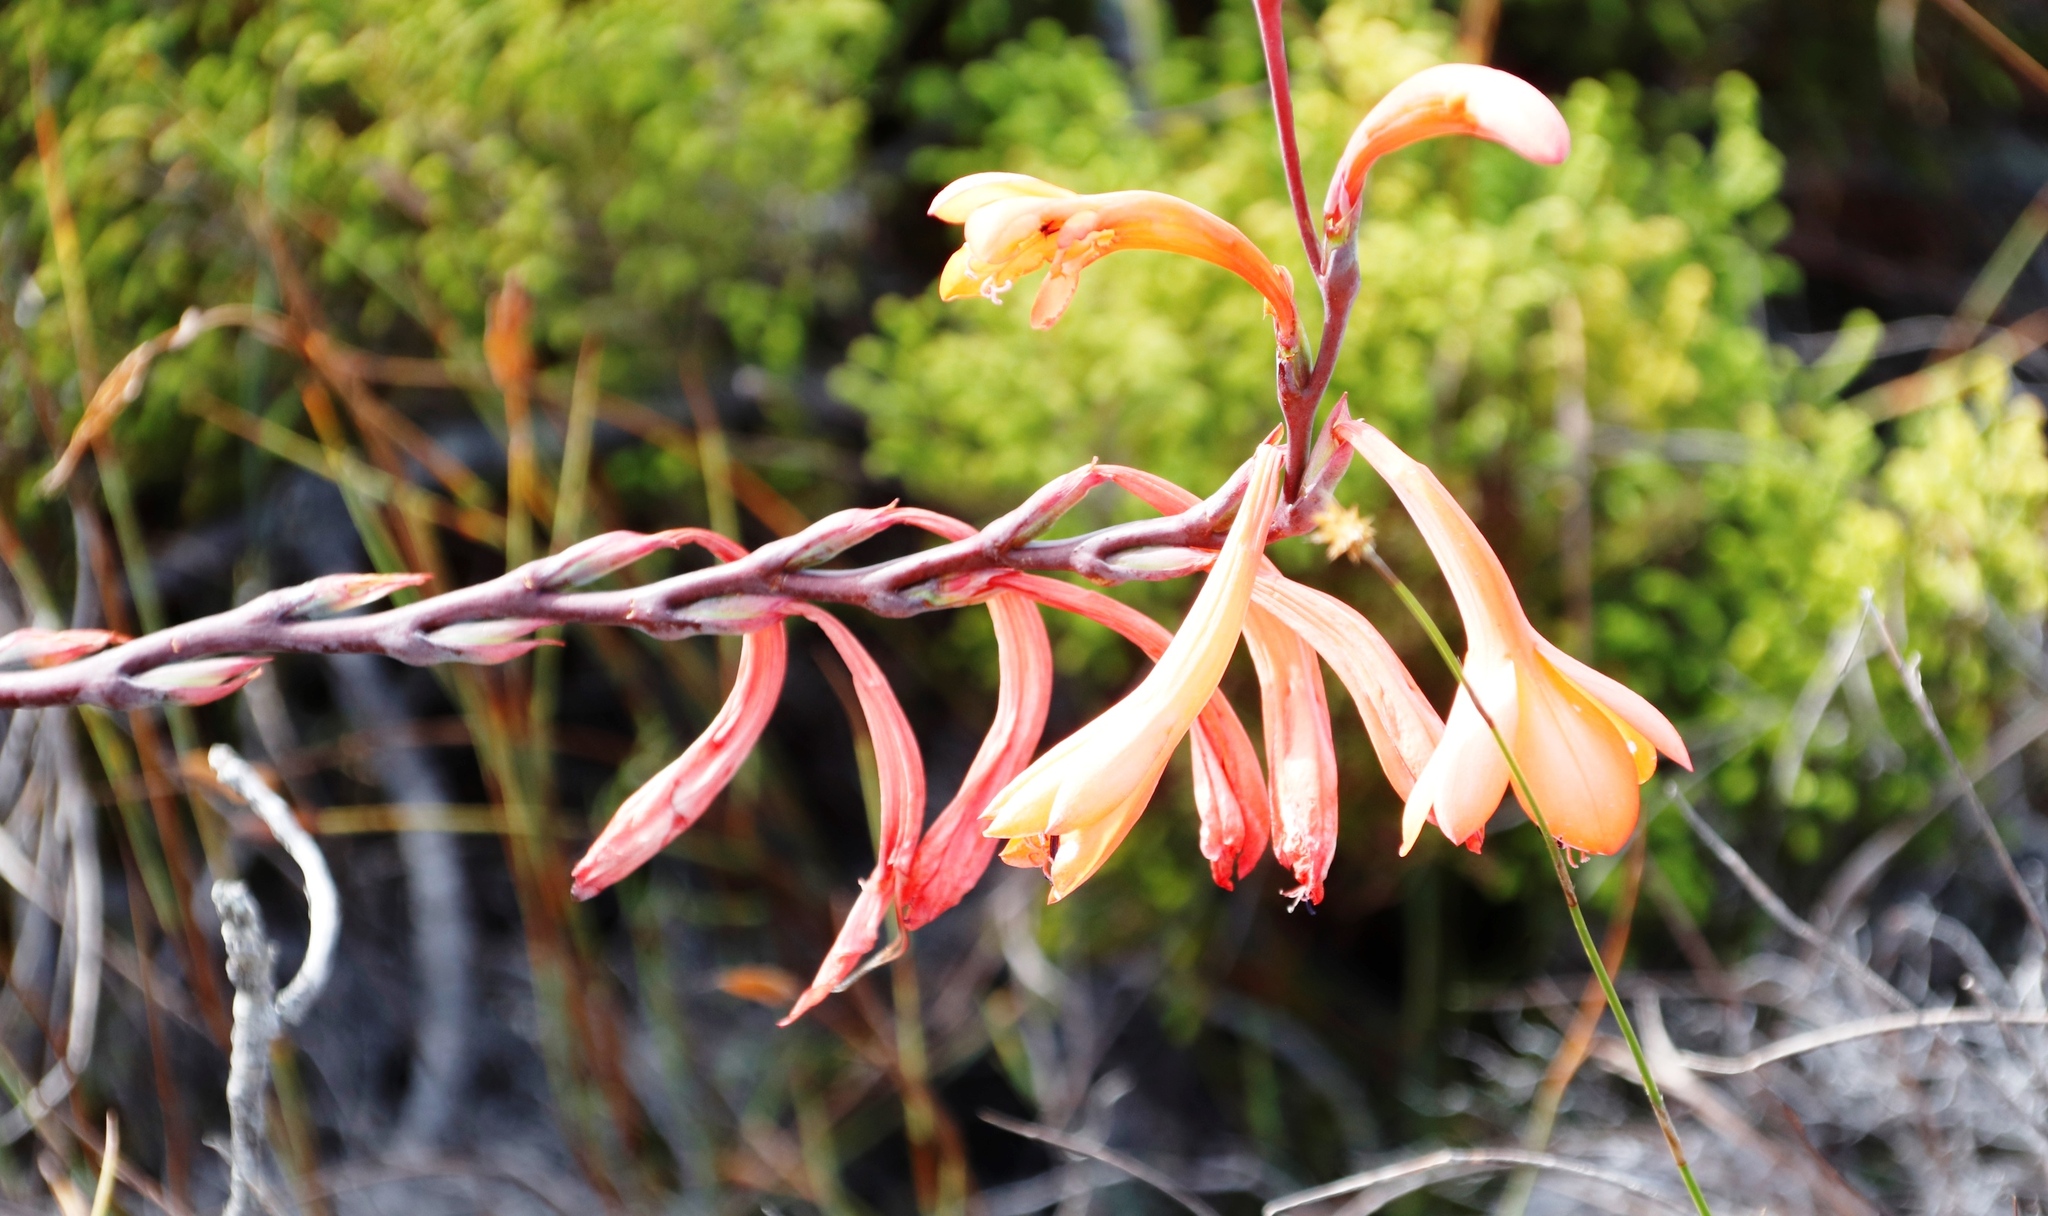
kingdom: Plantae
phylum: Tracheophyta
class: Liliopsida
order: Asparagales
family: Iridaceae
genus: Watsonia
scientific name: Watsonia tabularis
